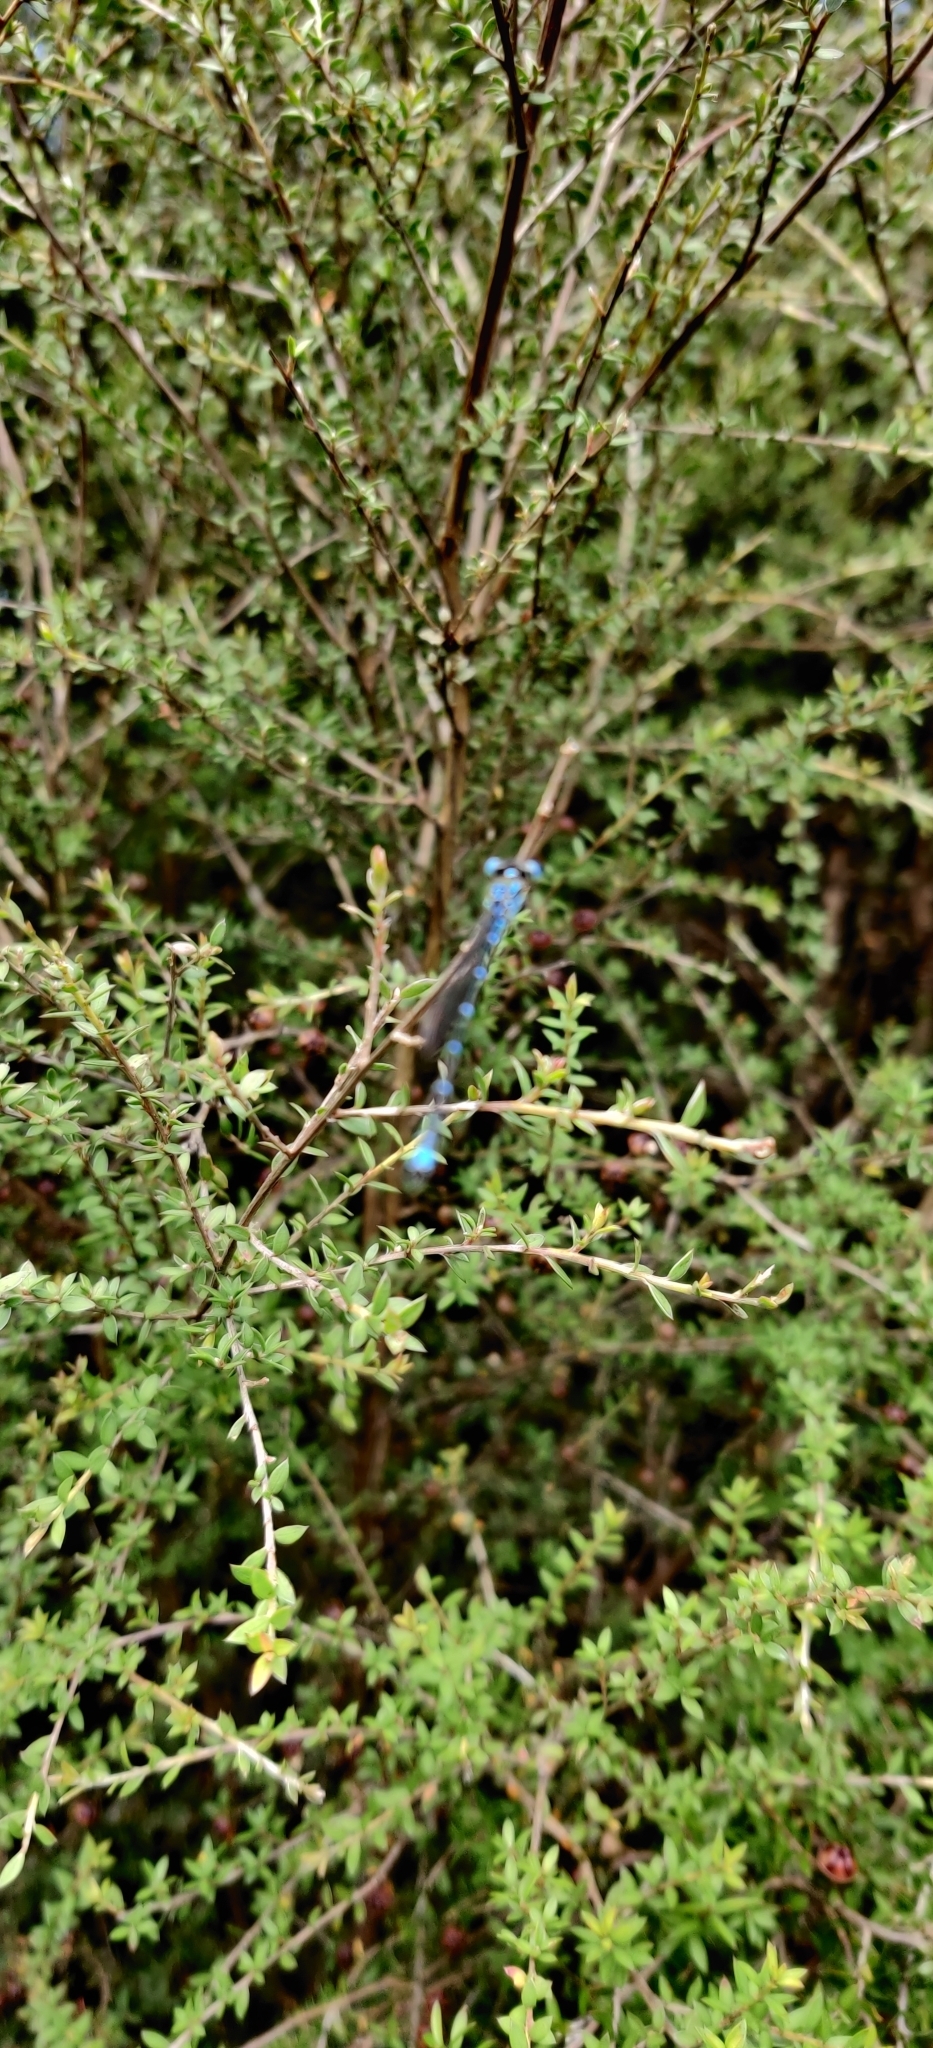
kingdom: Animalia
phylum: Arthropoda
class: Insecta
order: Odonata
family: Lestidae
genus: Austrolestes
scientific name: Austrolestes colensonis
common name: Blue damselfly
